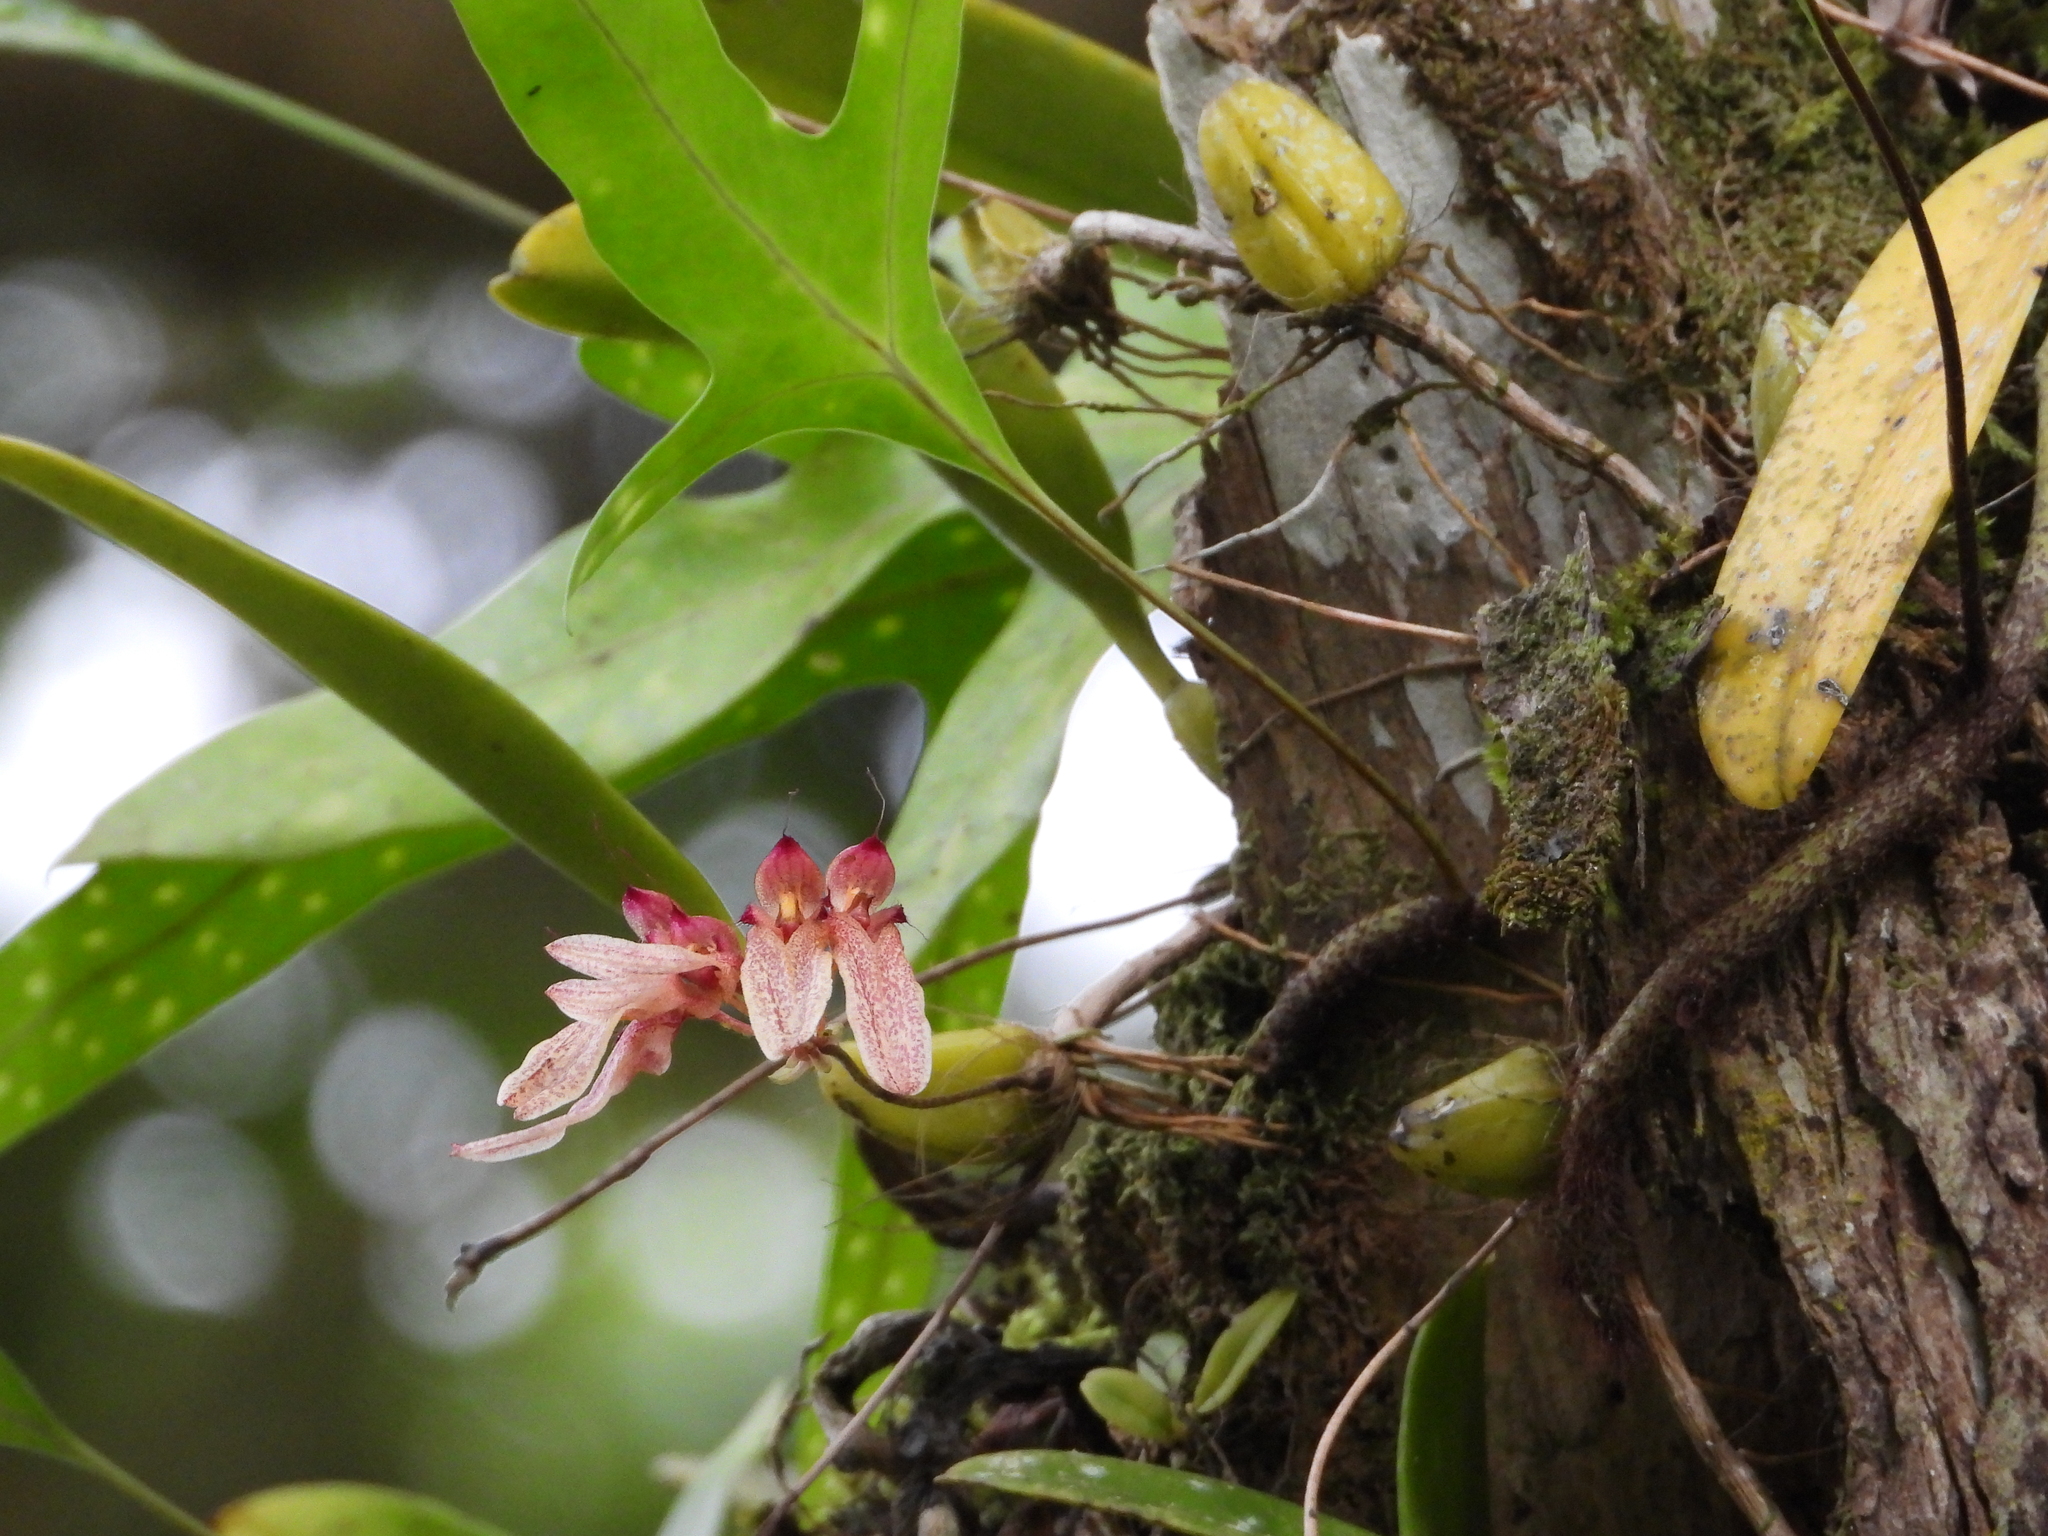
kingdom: Plantae
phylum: Tracheophyta
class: Liliopsida
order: Asparagales
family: Orchidaceae
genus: Bulbophyllum
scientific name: Bulbophyllum longiflorum
